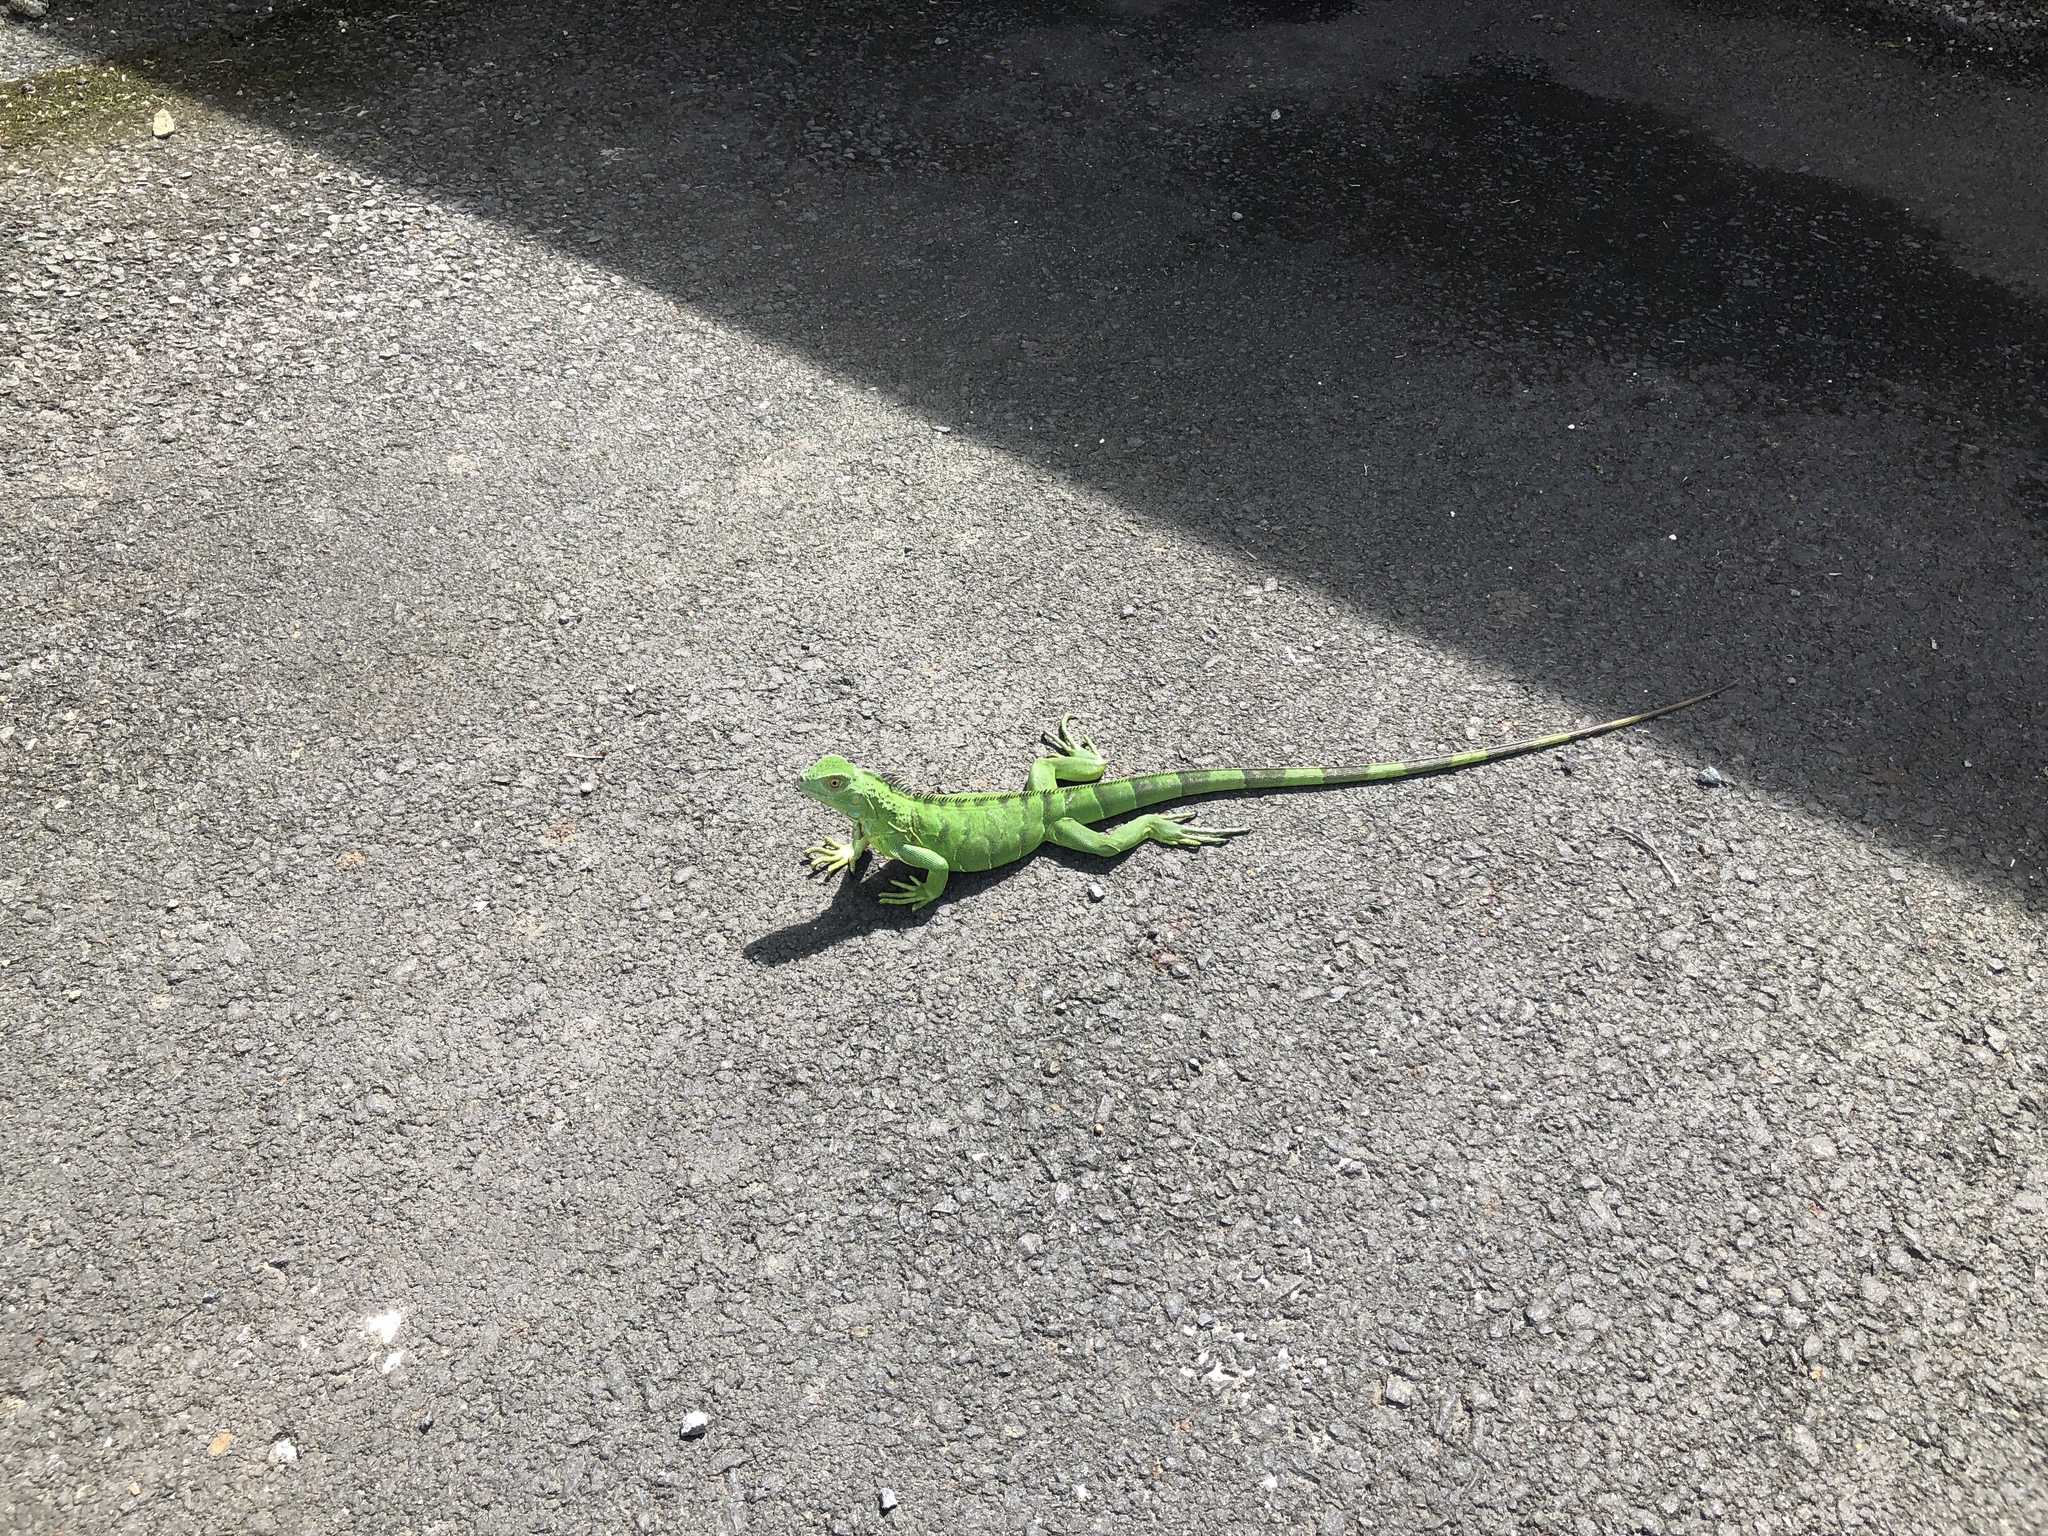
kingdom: Animalia
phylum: Chordata
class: Squamata
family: Iguanidae
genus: Iguana
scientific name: Iguana iguana
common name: Green iguana
